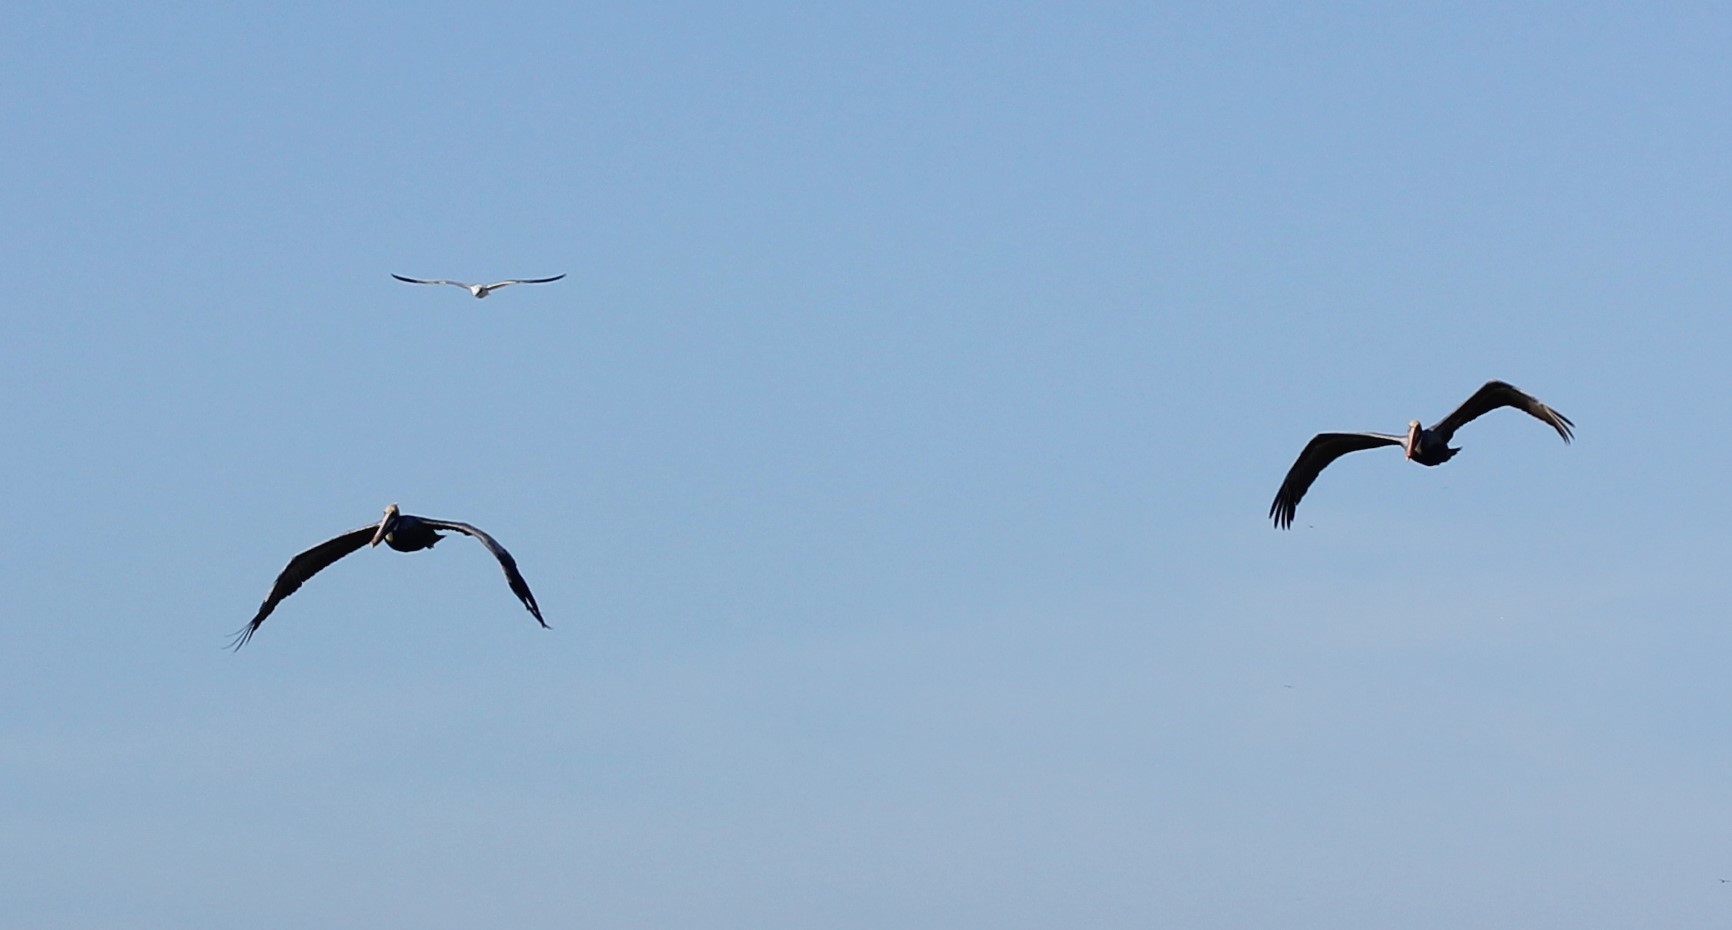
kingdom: Animalia
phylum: Chordata
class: Aves
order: Pelecaniformes
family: Pelecanidae
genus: Pelecanus
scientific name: Pelecanus occidentalis
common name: Brown pelican
